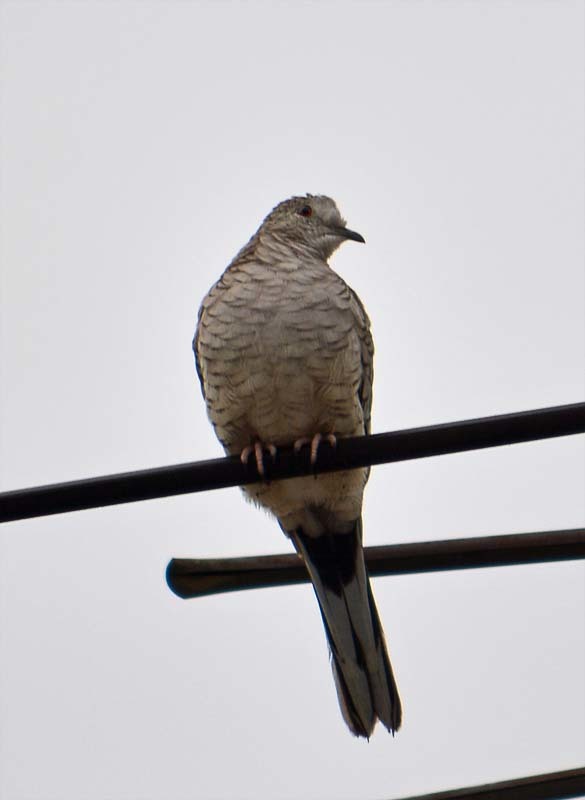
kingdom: Animalia
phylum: Chordata
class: Aves
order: Columbiformes
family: Columbidae
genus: Columbina
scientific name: Columbina inca
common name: Inca dove
